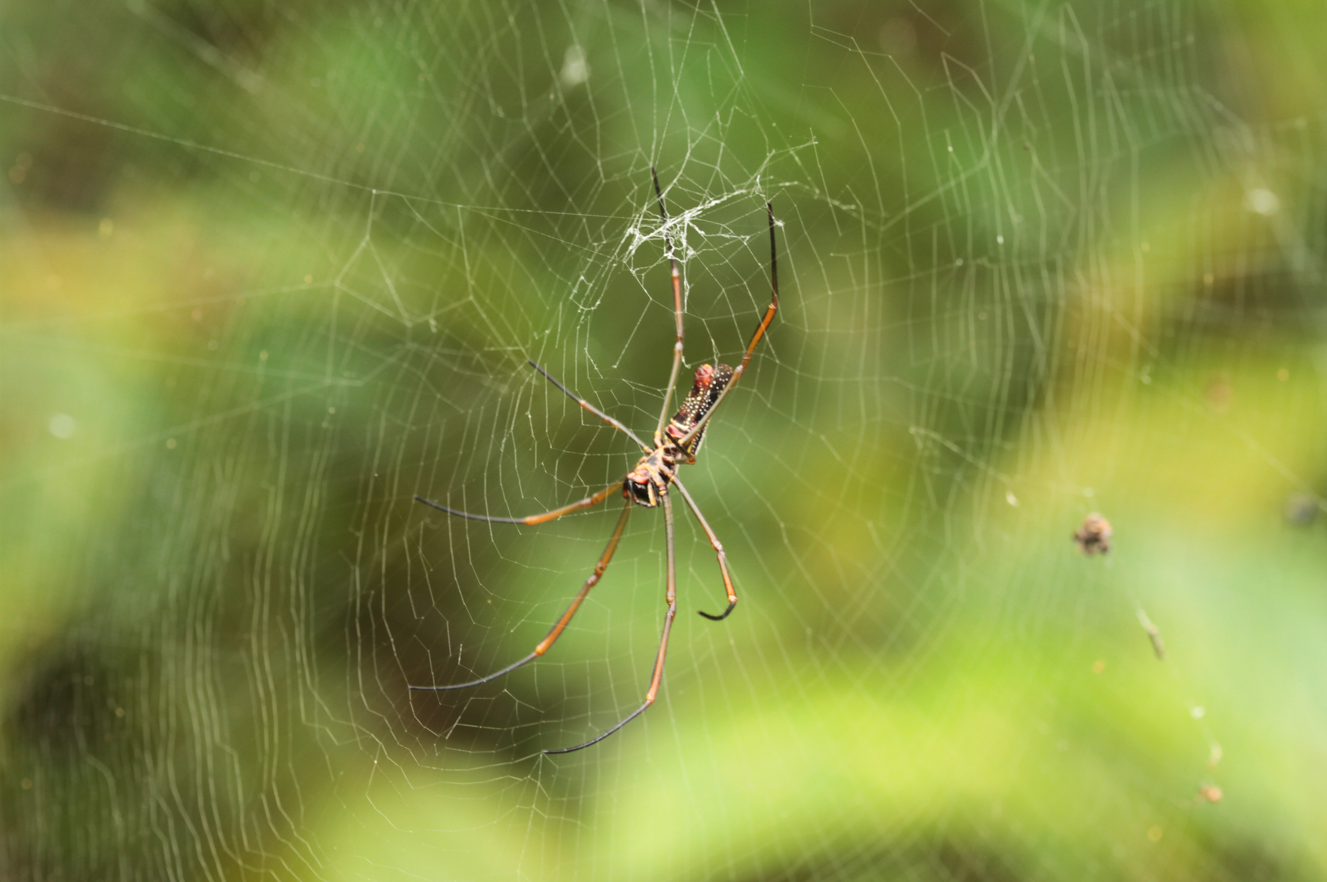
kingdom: Animalia
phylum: Arthropoda
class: Arachnida
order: Araneae
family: Araneidae
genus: Nephila
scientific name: Nephila cornuta
